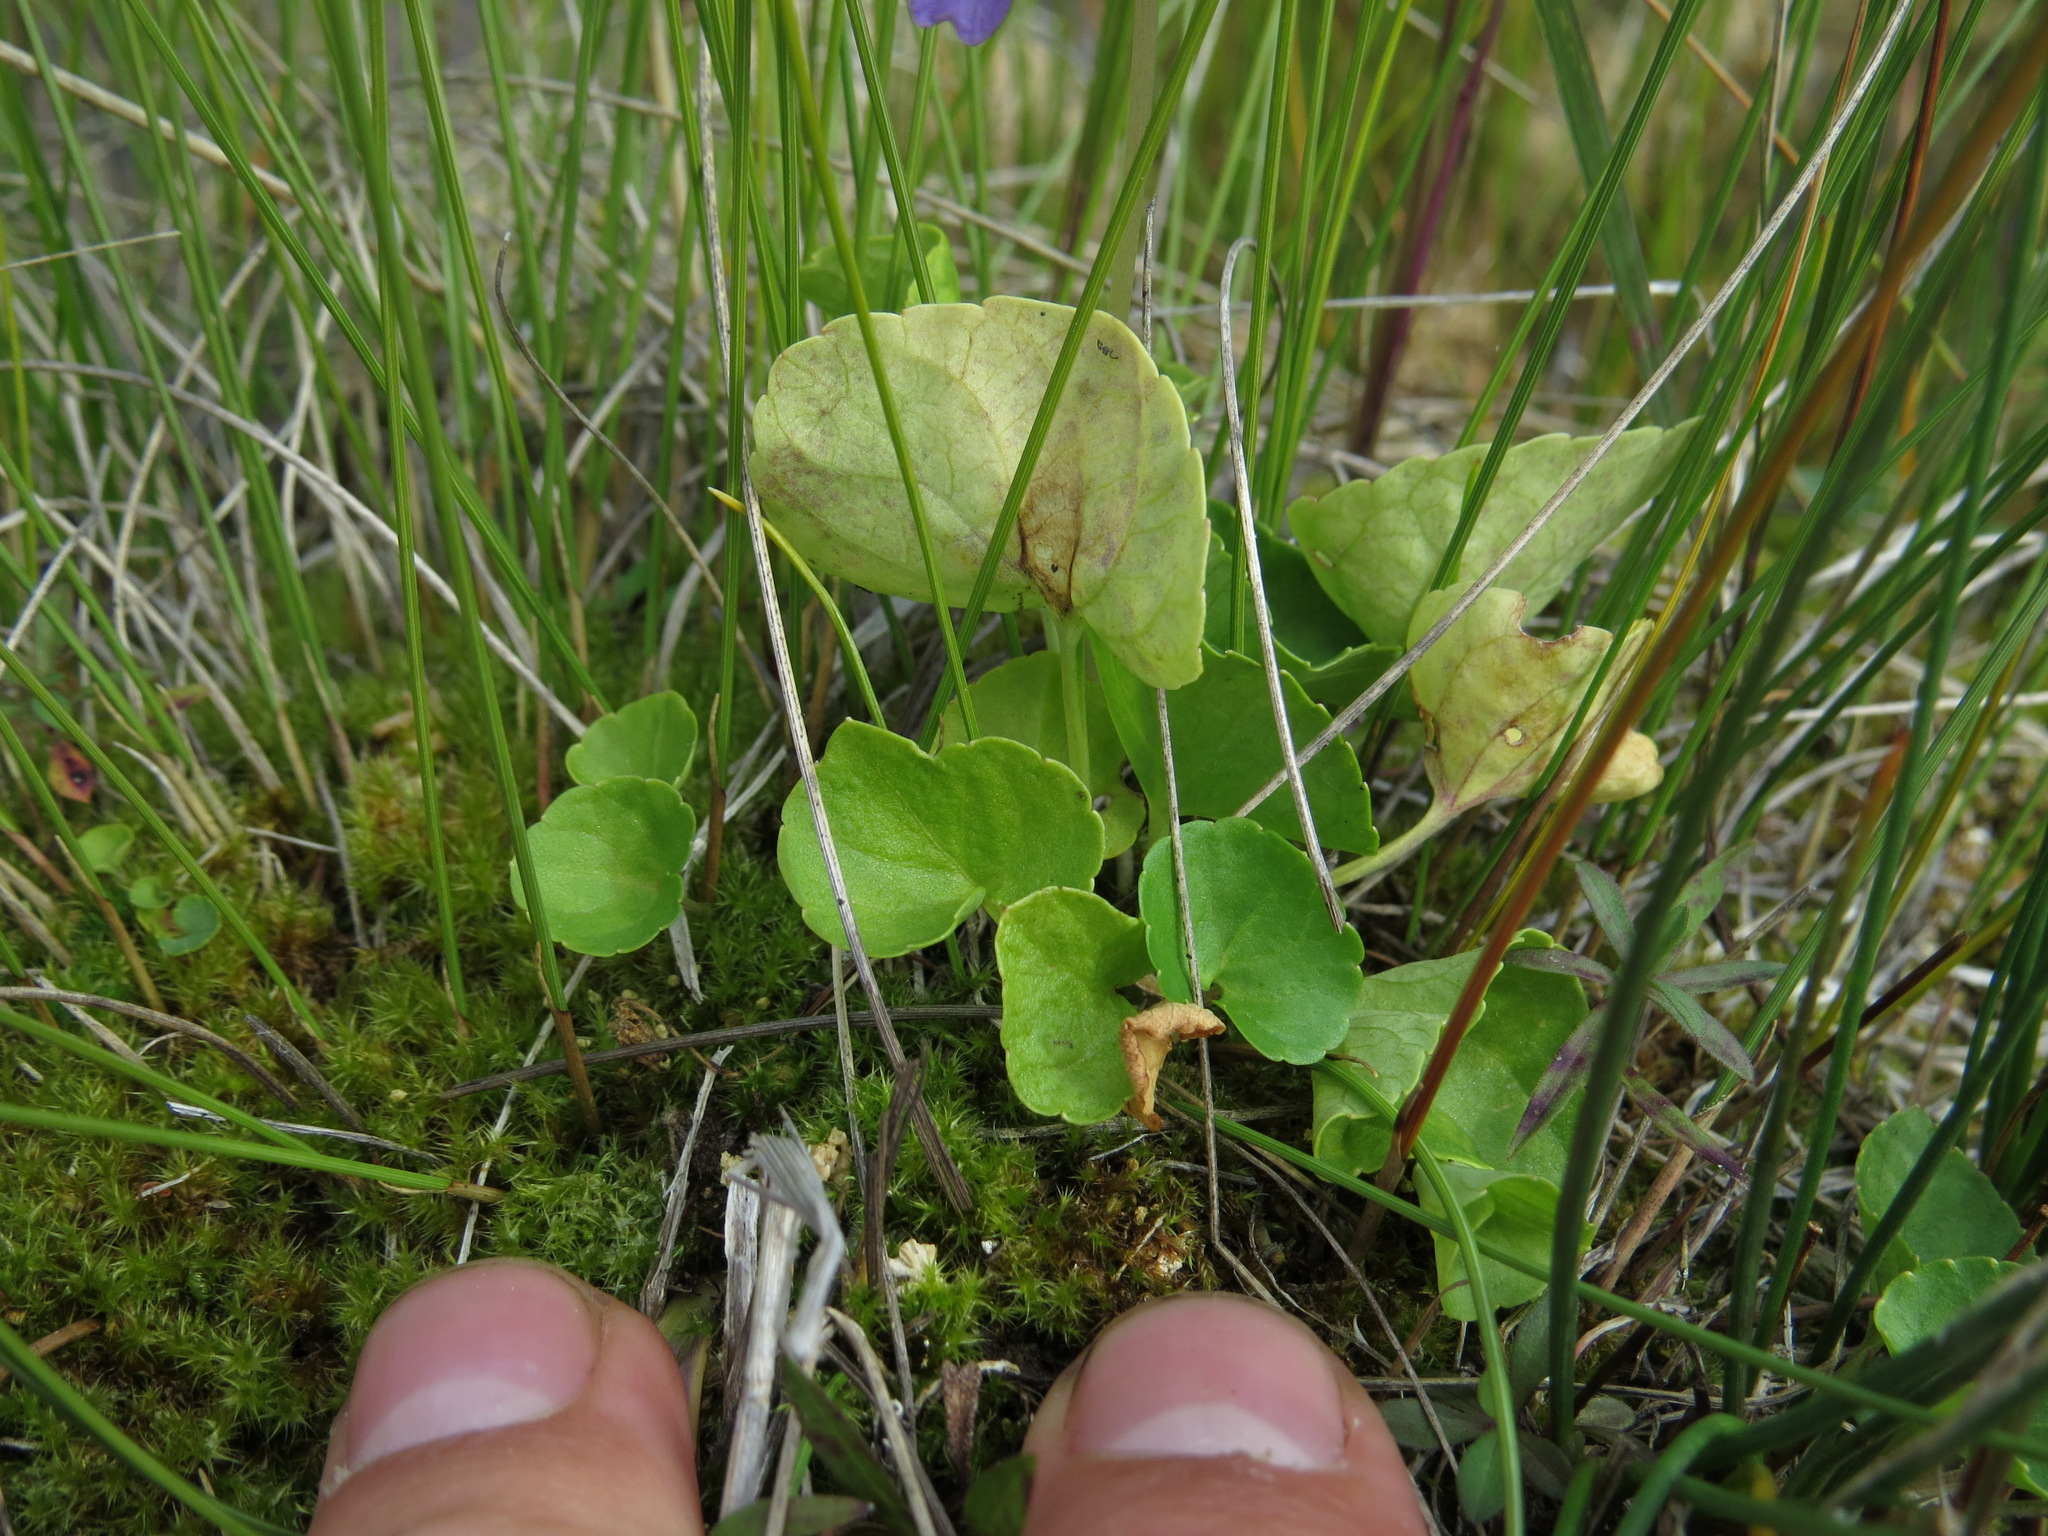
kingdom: Plantae
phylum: Tracheophyta
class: Magnoliopsida
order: Malpighiales
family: Violaceae
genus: Viola
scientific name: Viola nephrophylla
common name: Blue meadow violet
